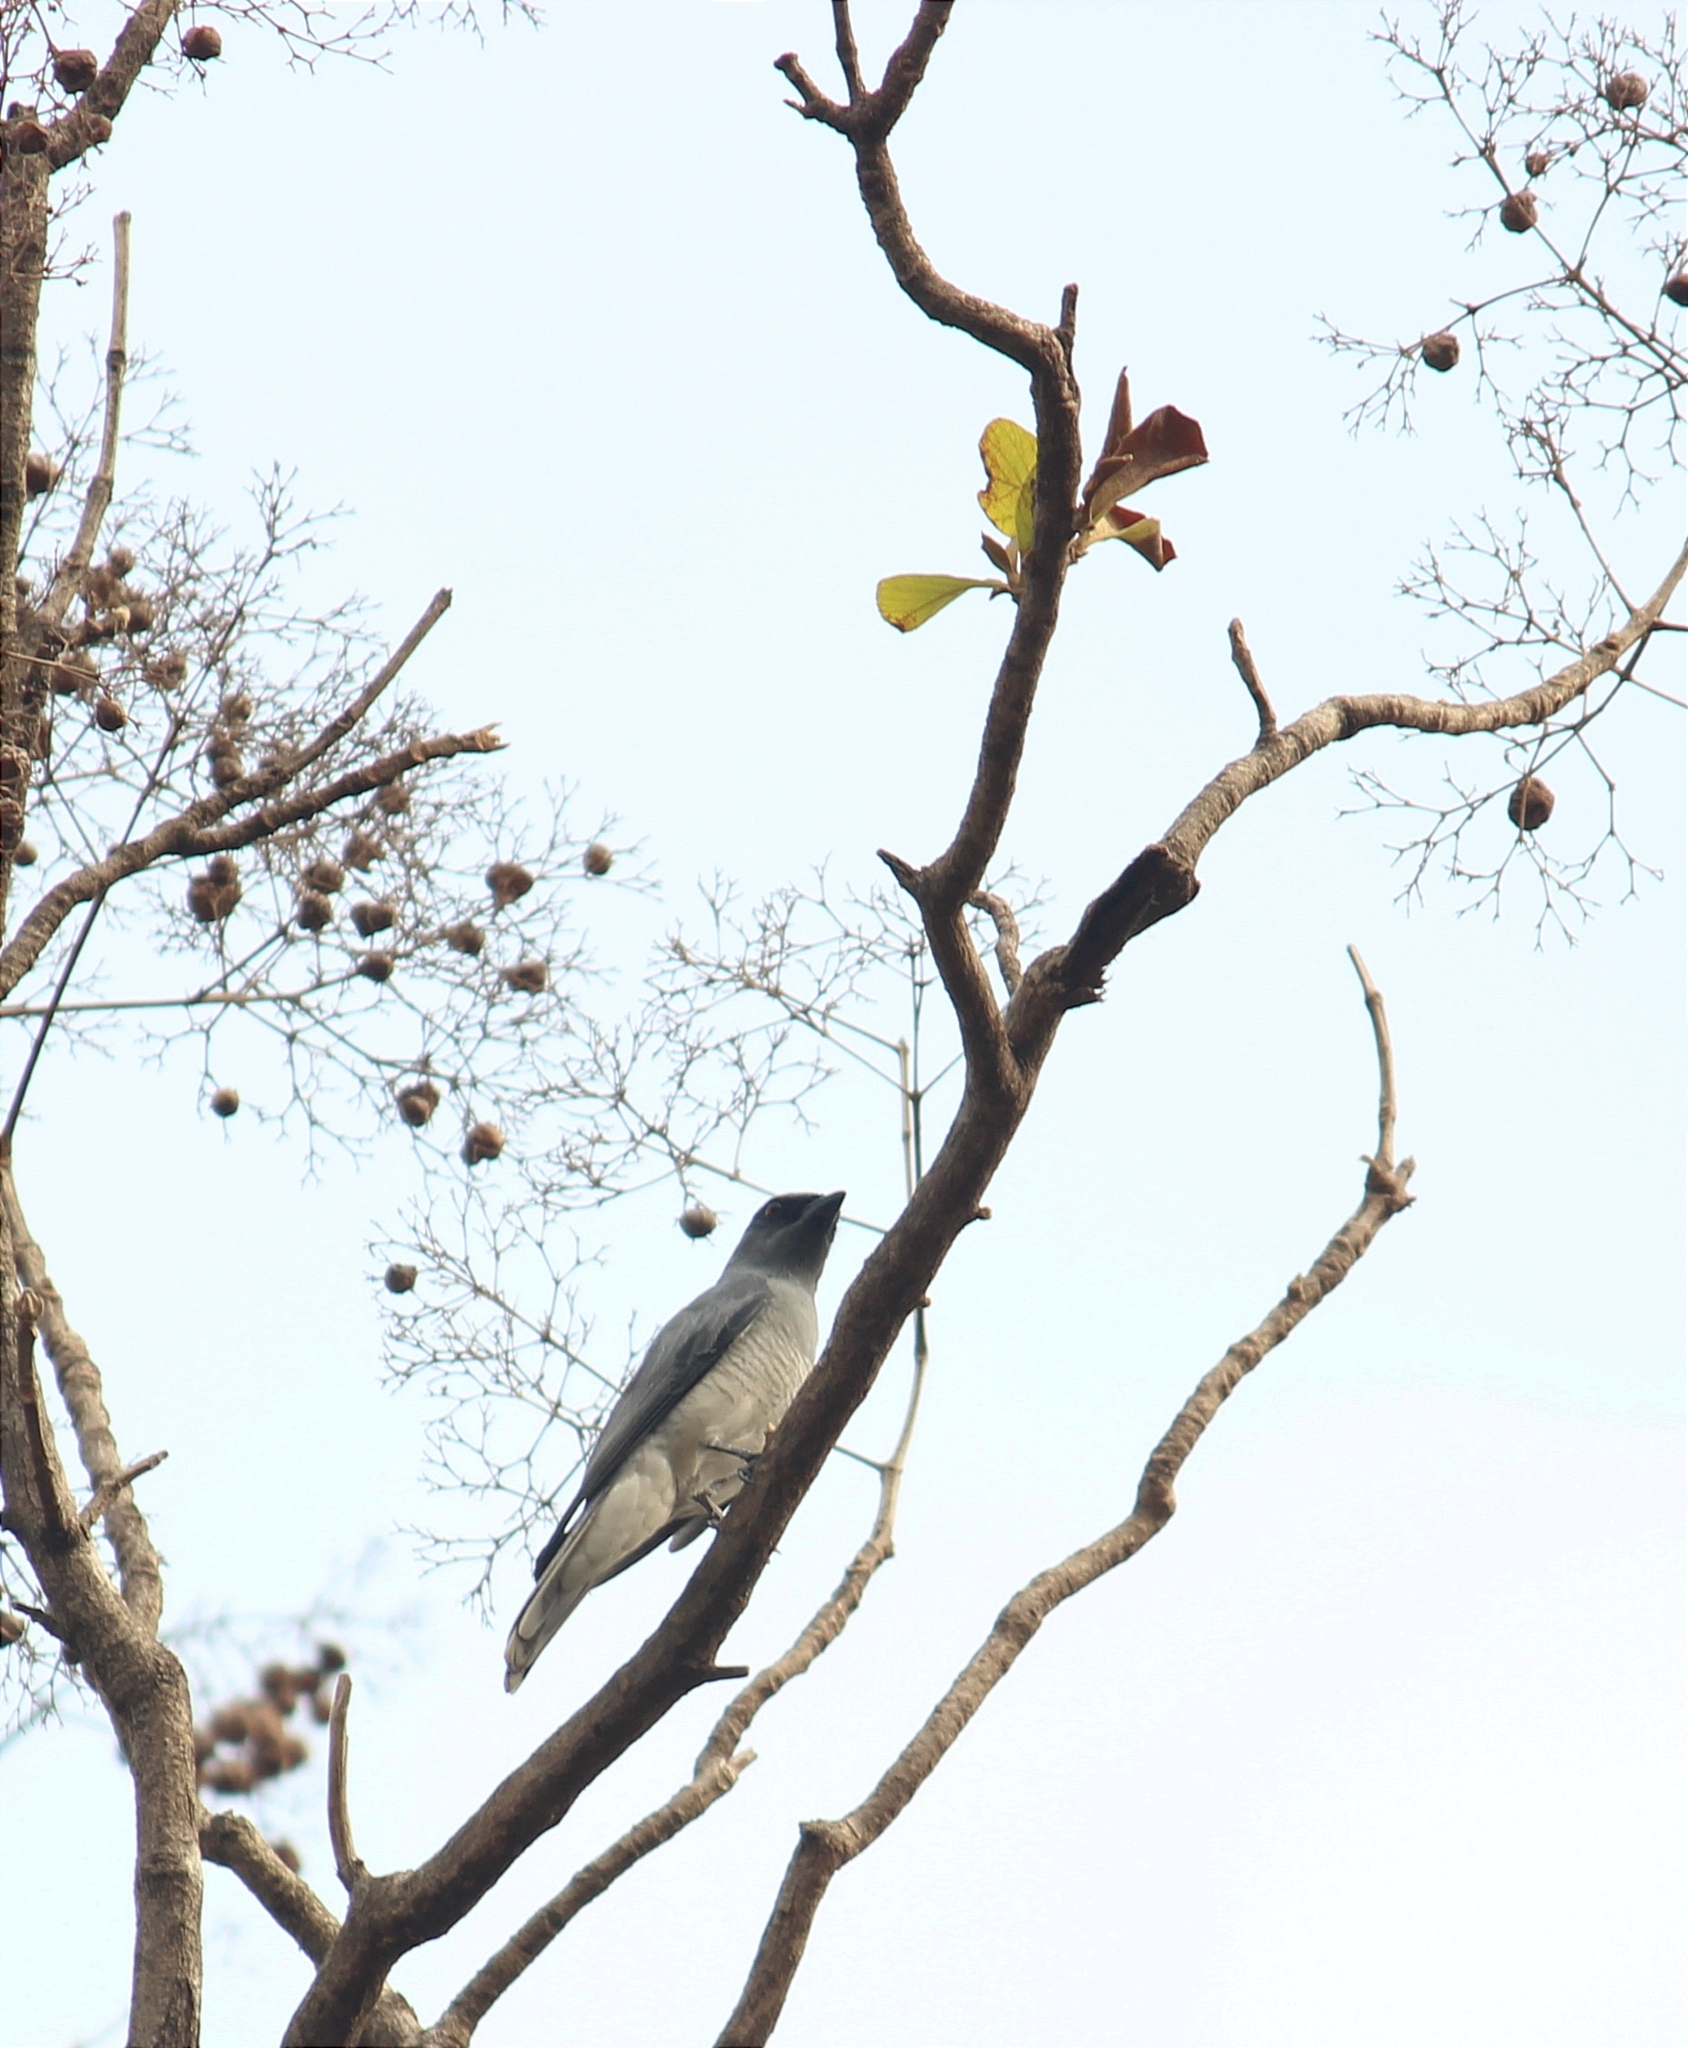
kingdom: Animalia
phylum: Chordata
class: Aves
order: Passeriformes
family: Campephagidae
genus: Coracina
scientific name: Coracina macei
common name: Large cuckooshrike
